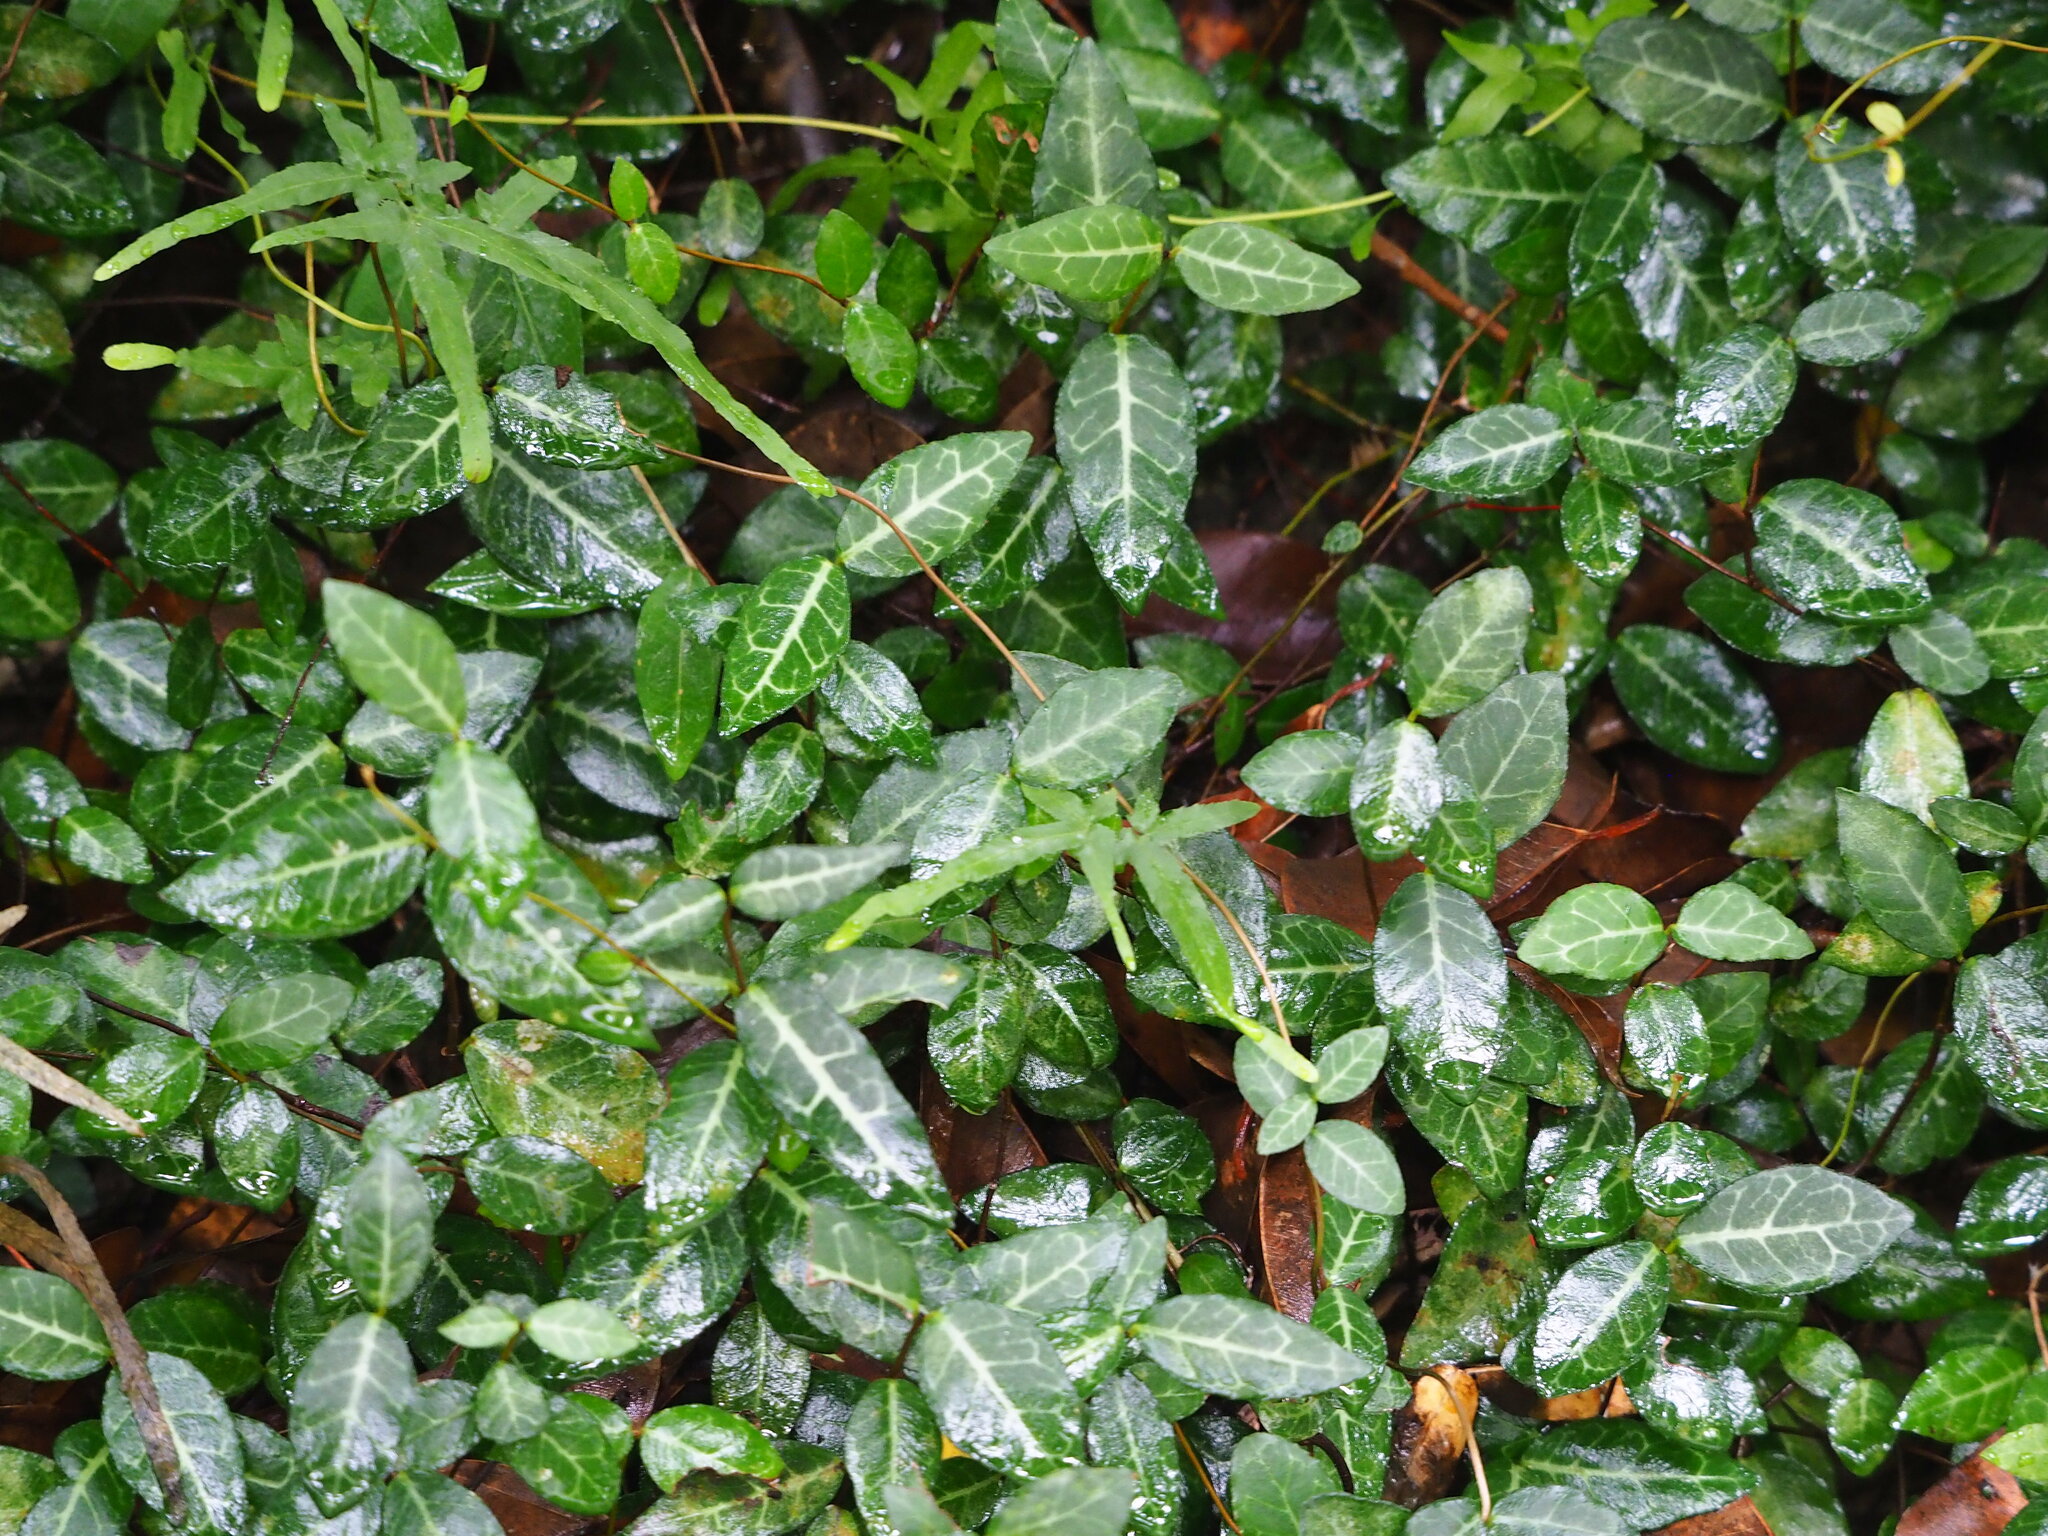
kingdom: Plantae
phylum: Tracheophyta
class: Magnoliopsida
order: Gentianales
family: Apocynaceae
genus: Trachelospermum
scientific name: Trachelospermum asiaticum
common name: Asiatic jasmine
